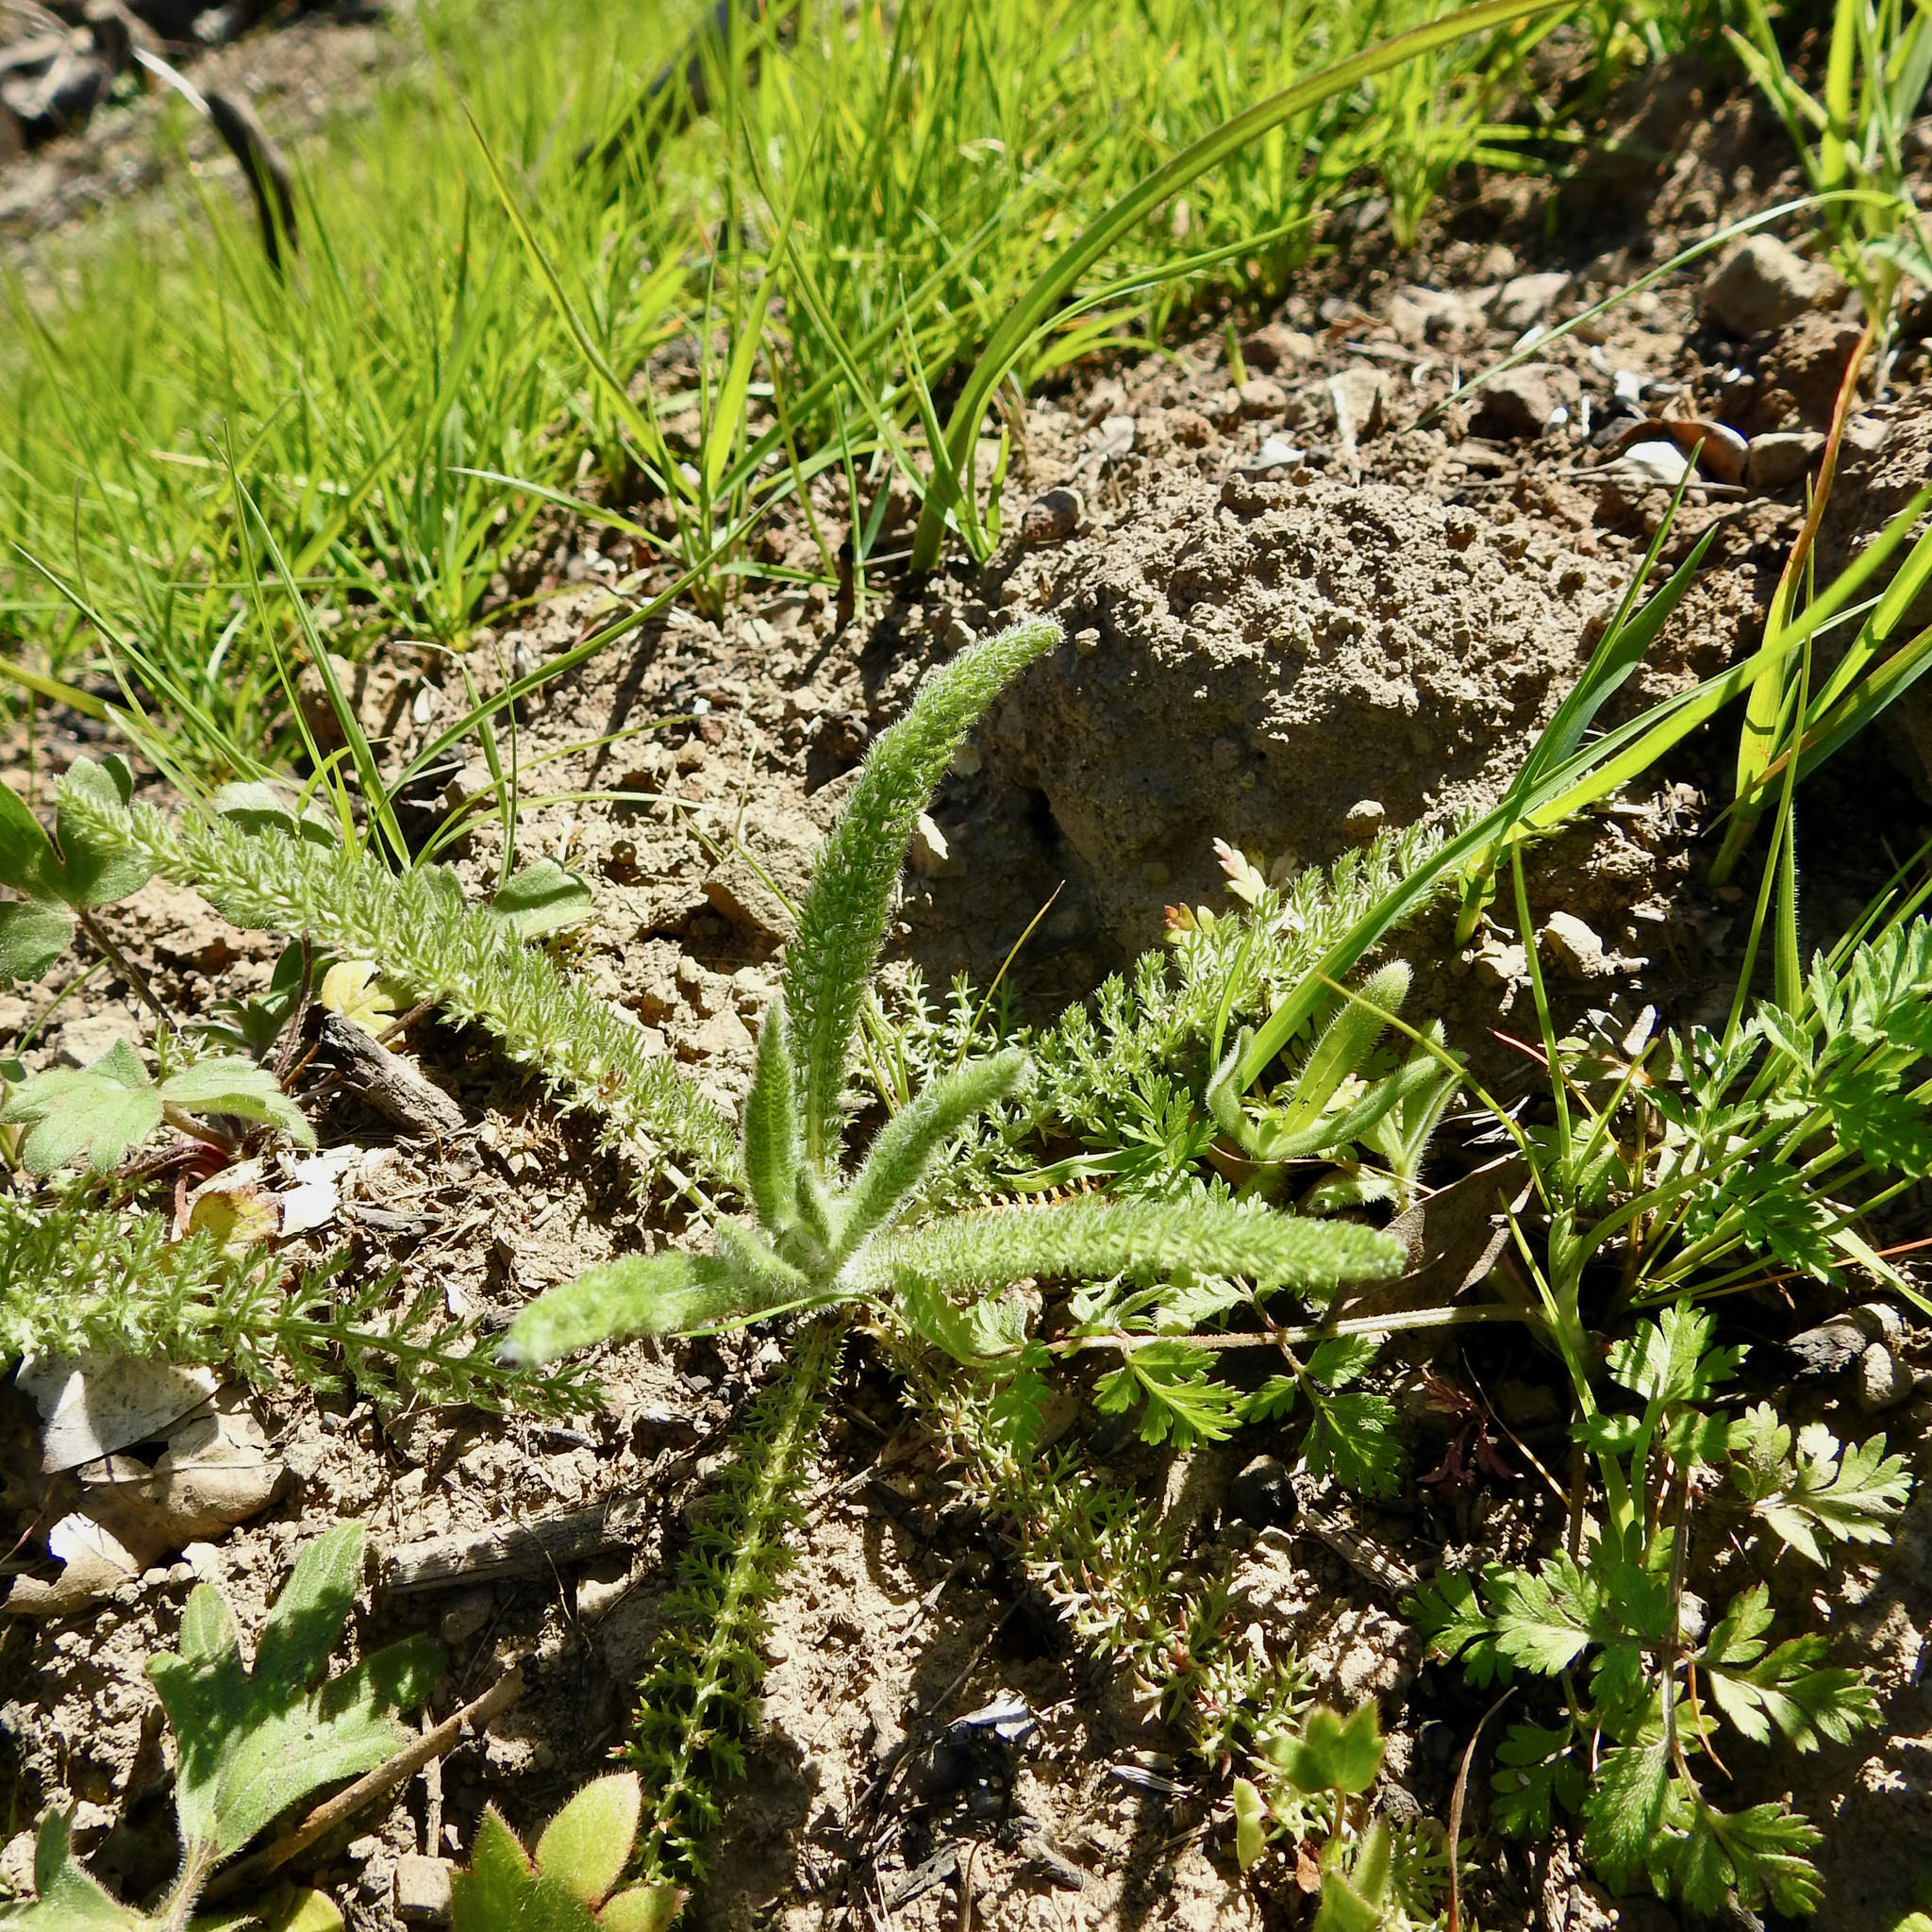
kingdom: Plantae
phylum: Tracheophyta
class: Magnoliopsida
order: Asterales
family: Asteraceae
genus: Achillea
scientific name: Achillea millefolium
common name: Yarrow
